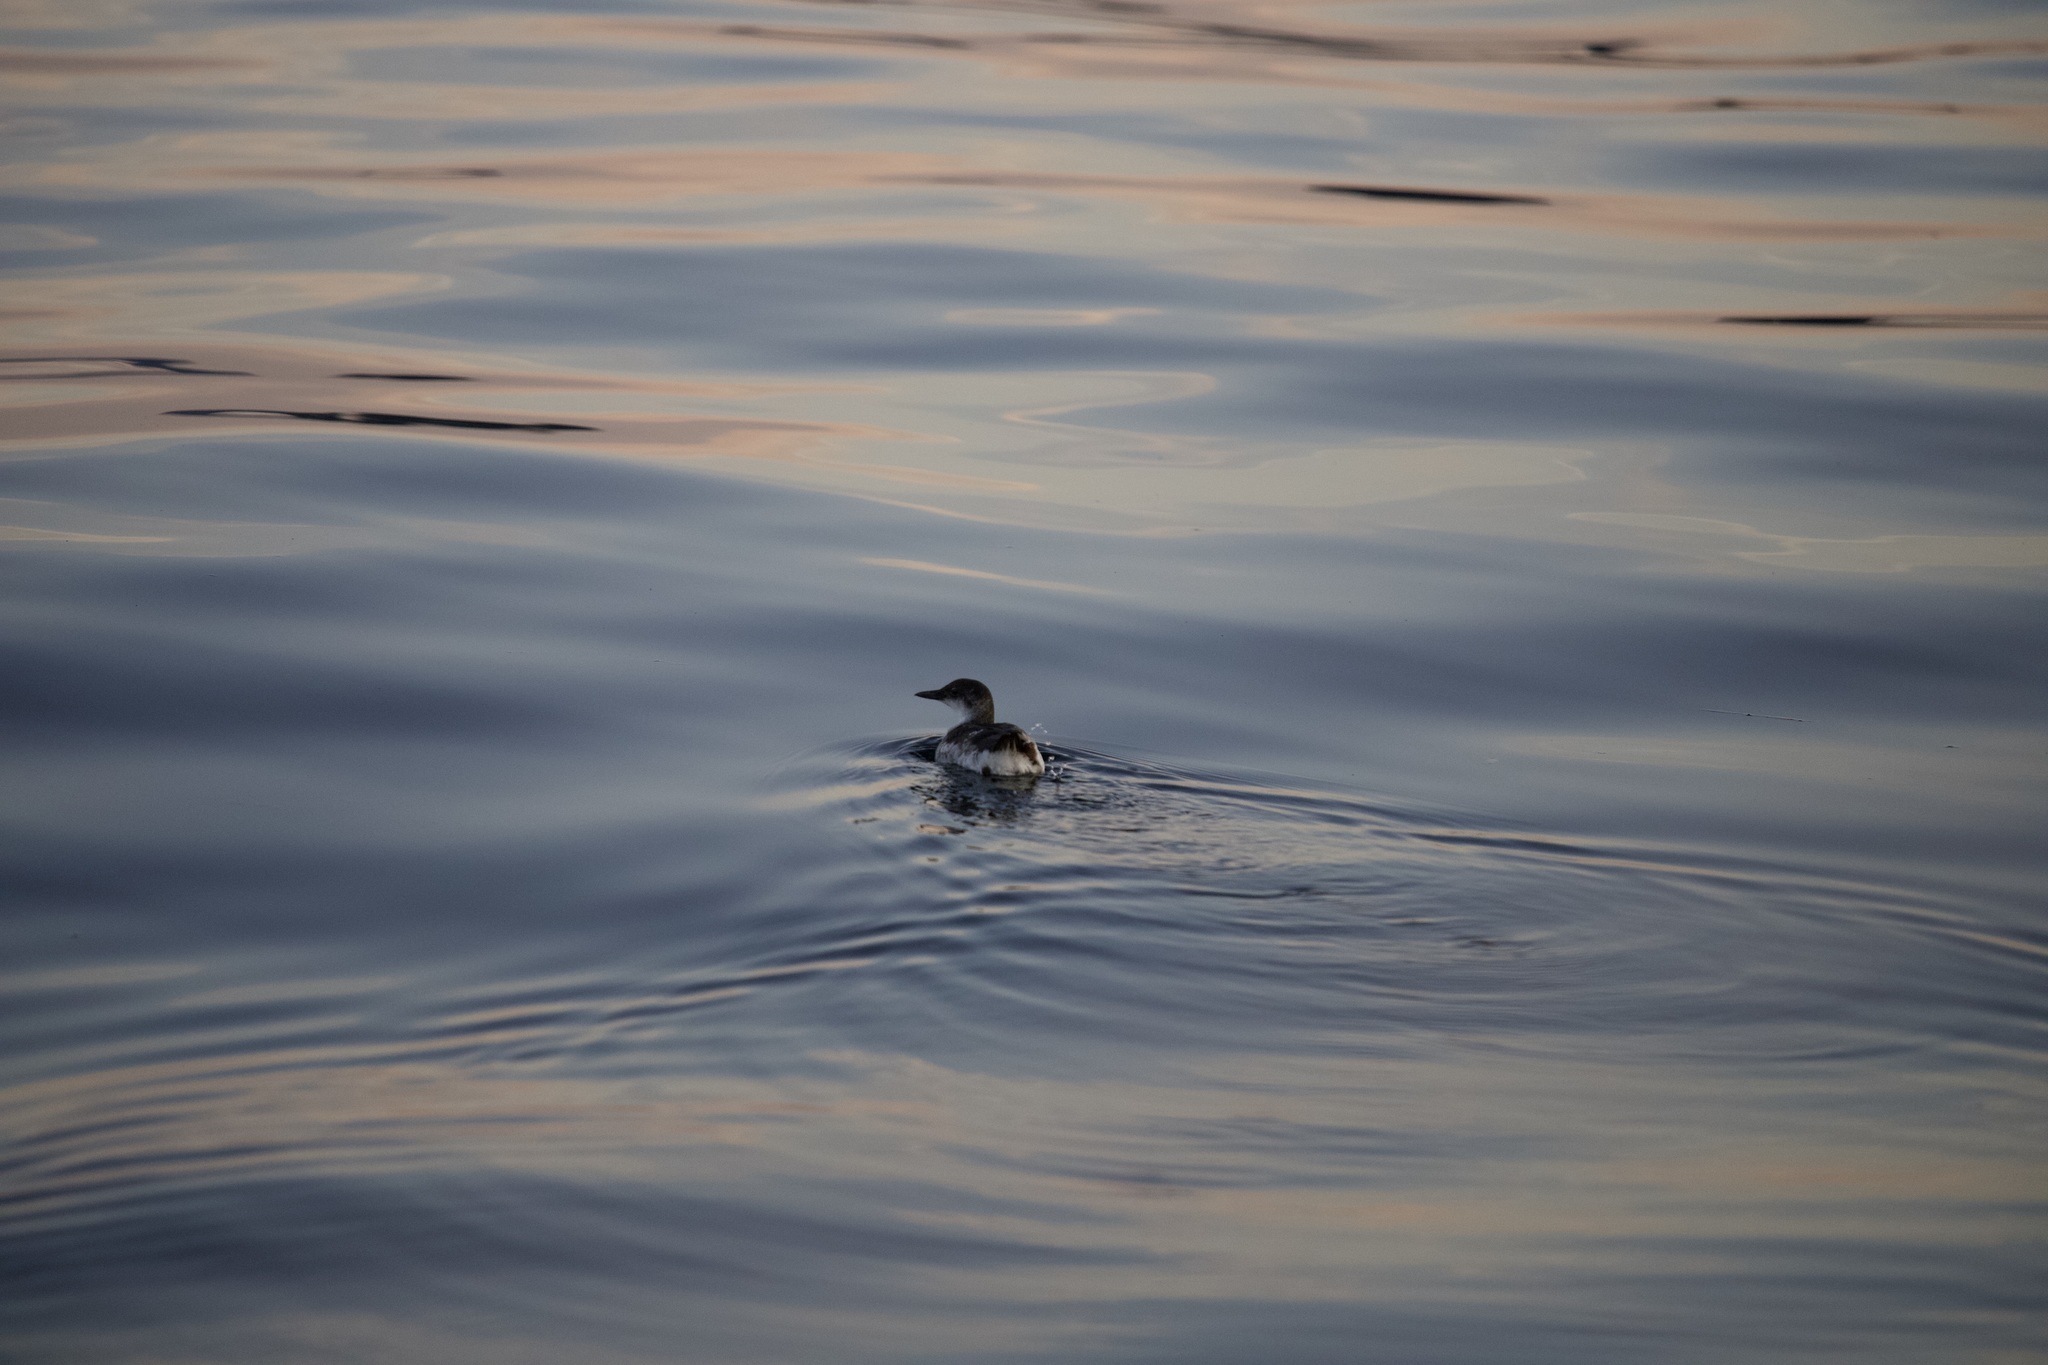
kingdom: Animalia
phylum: Chordata
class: Aves
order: Charadriiformes
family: Alcidae
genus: Uria
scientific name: Uria aalge
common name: Common murre
